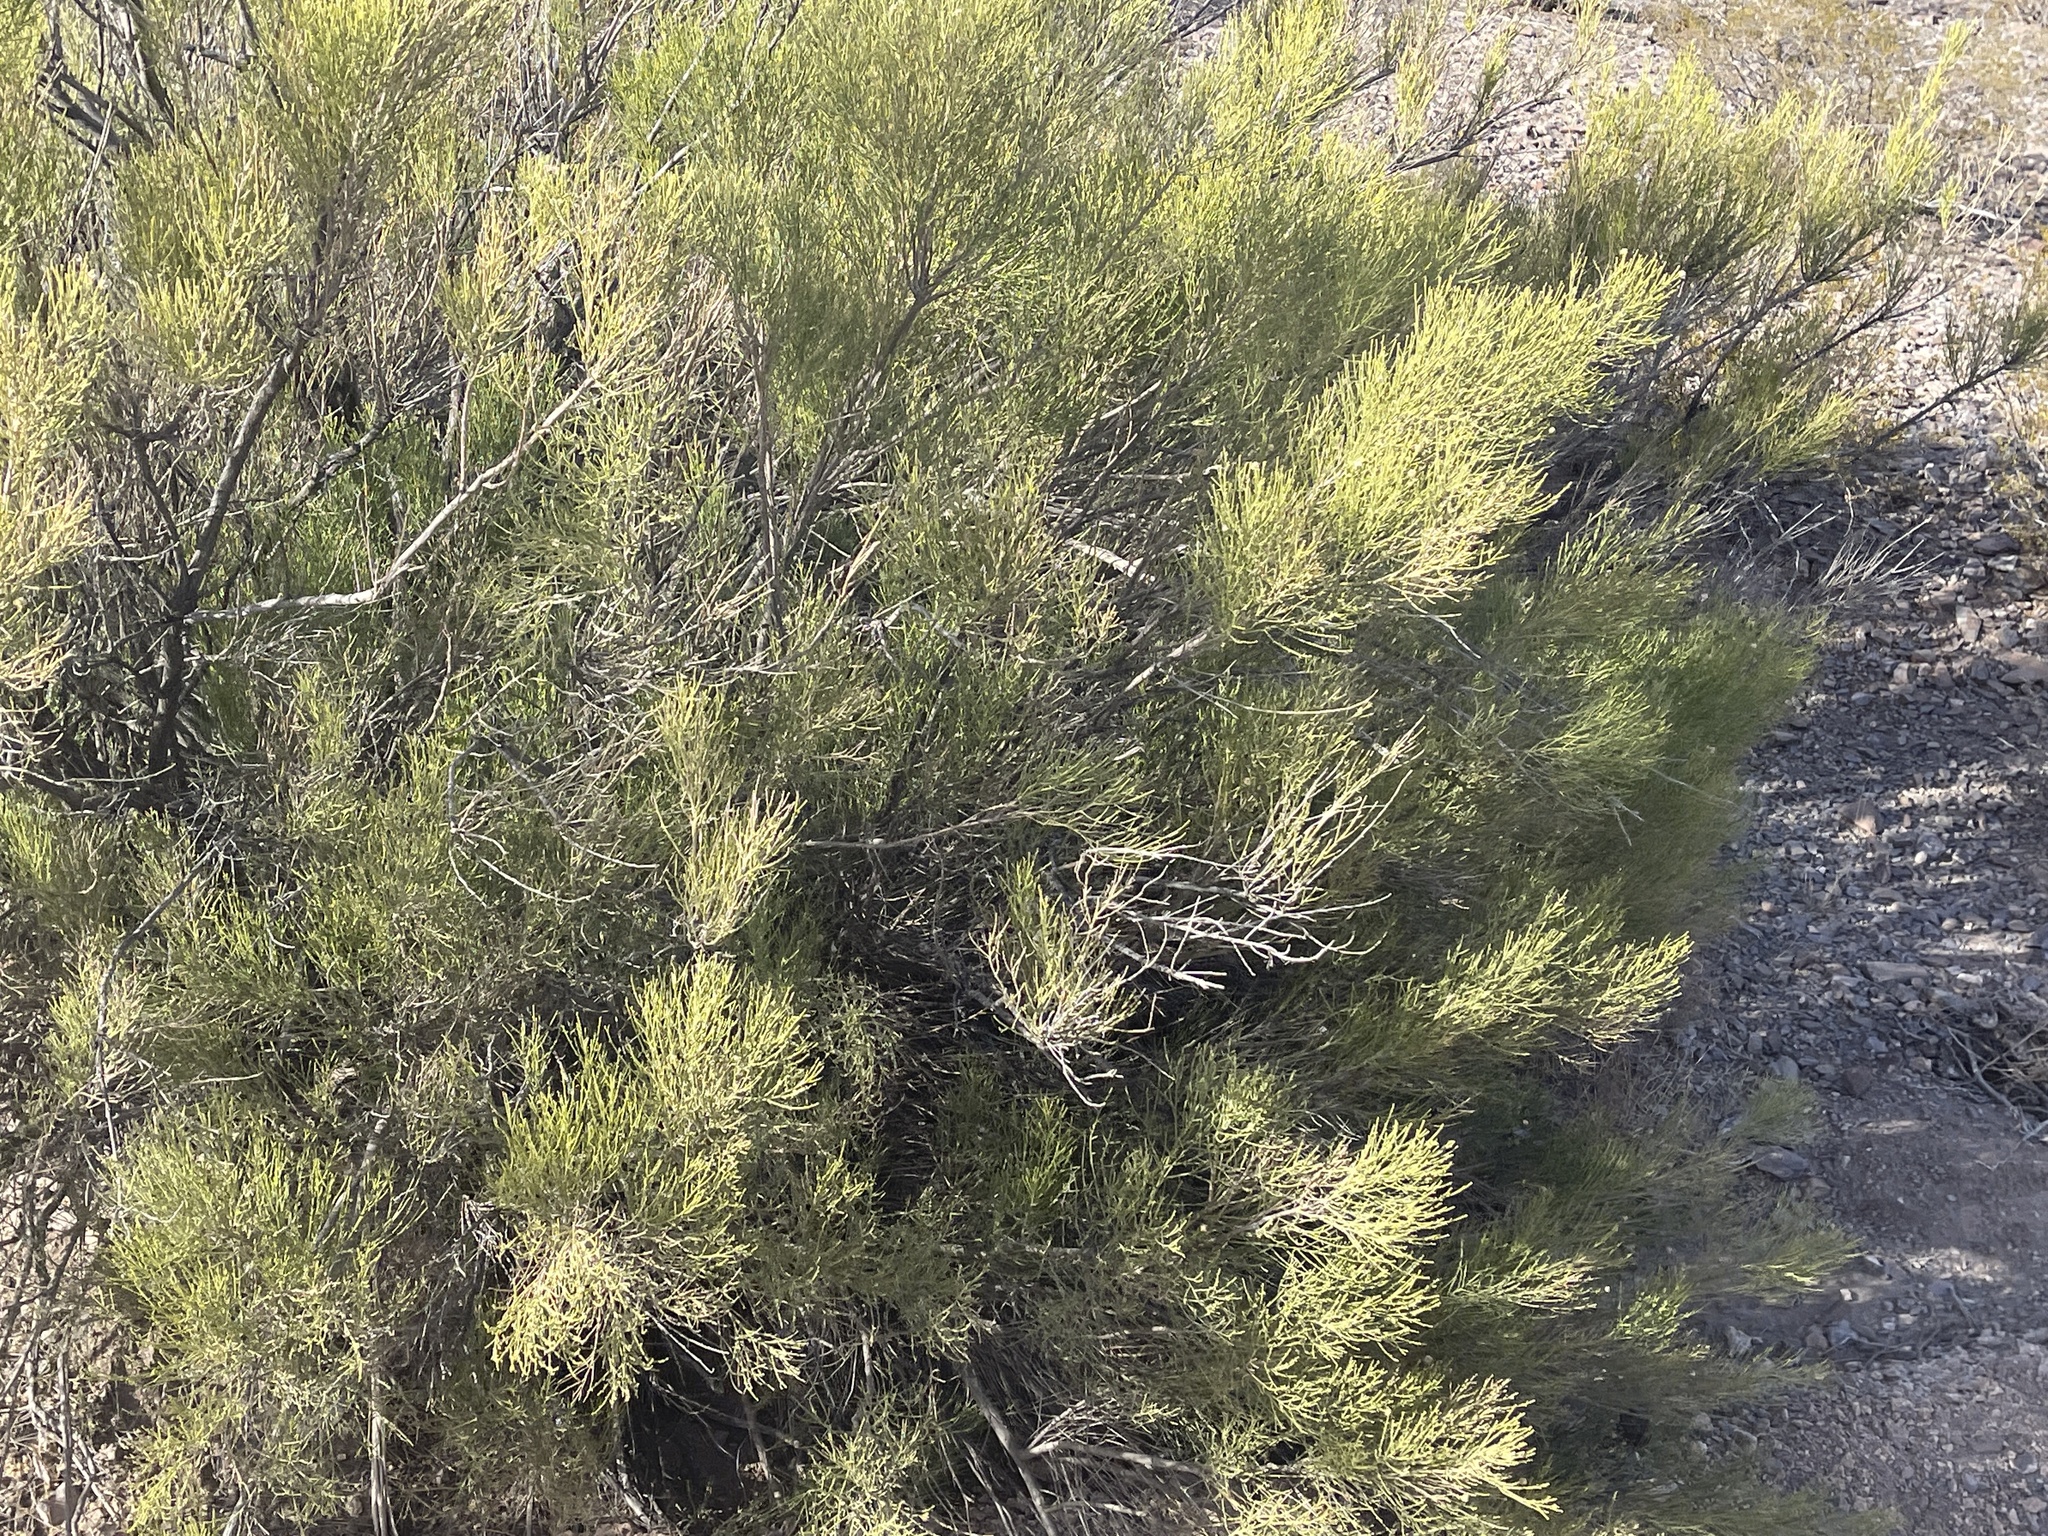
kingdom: Plantae
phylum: Tracheophyta
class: Magnoliopsida
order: Asterales
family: Asteraceae
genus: Baccharis
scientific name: Baccharis sarothroides
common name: Desert-broom
